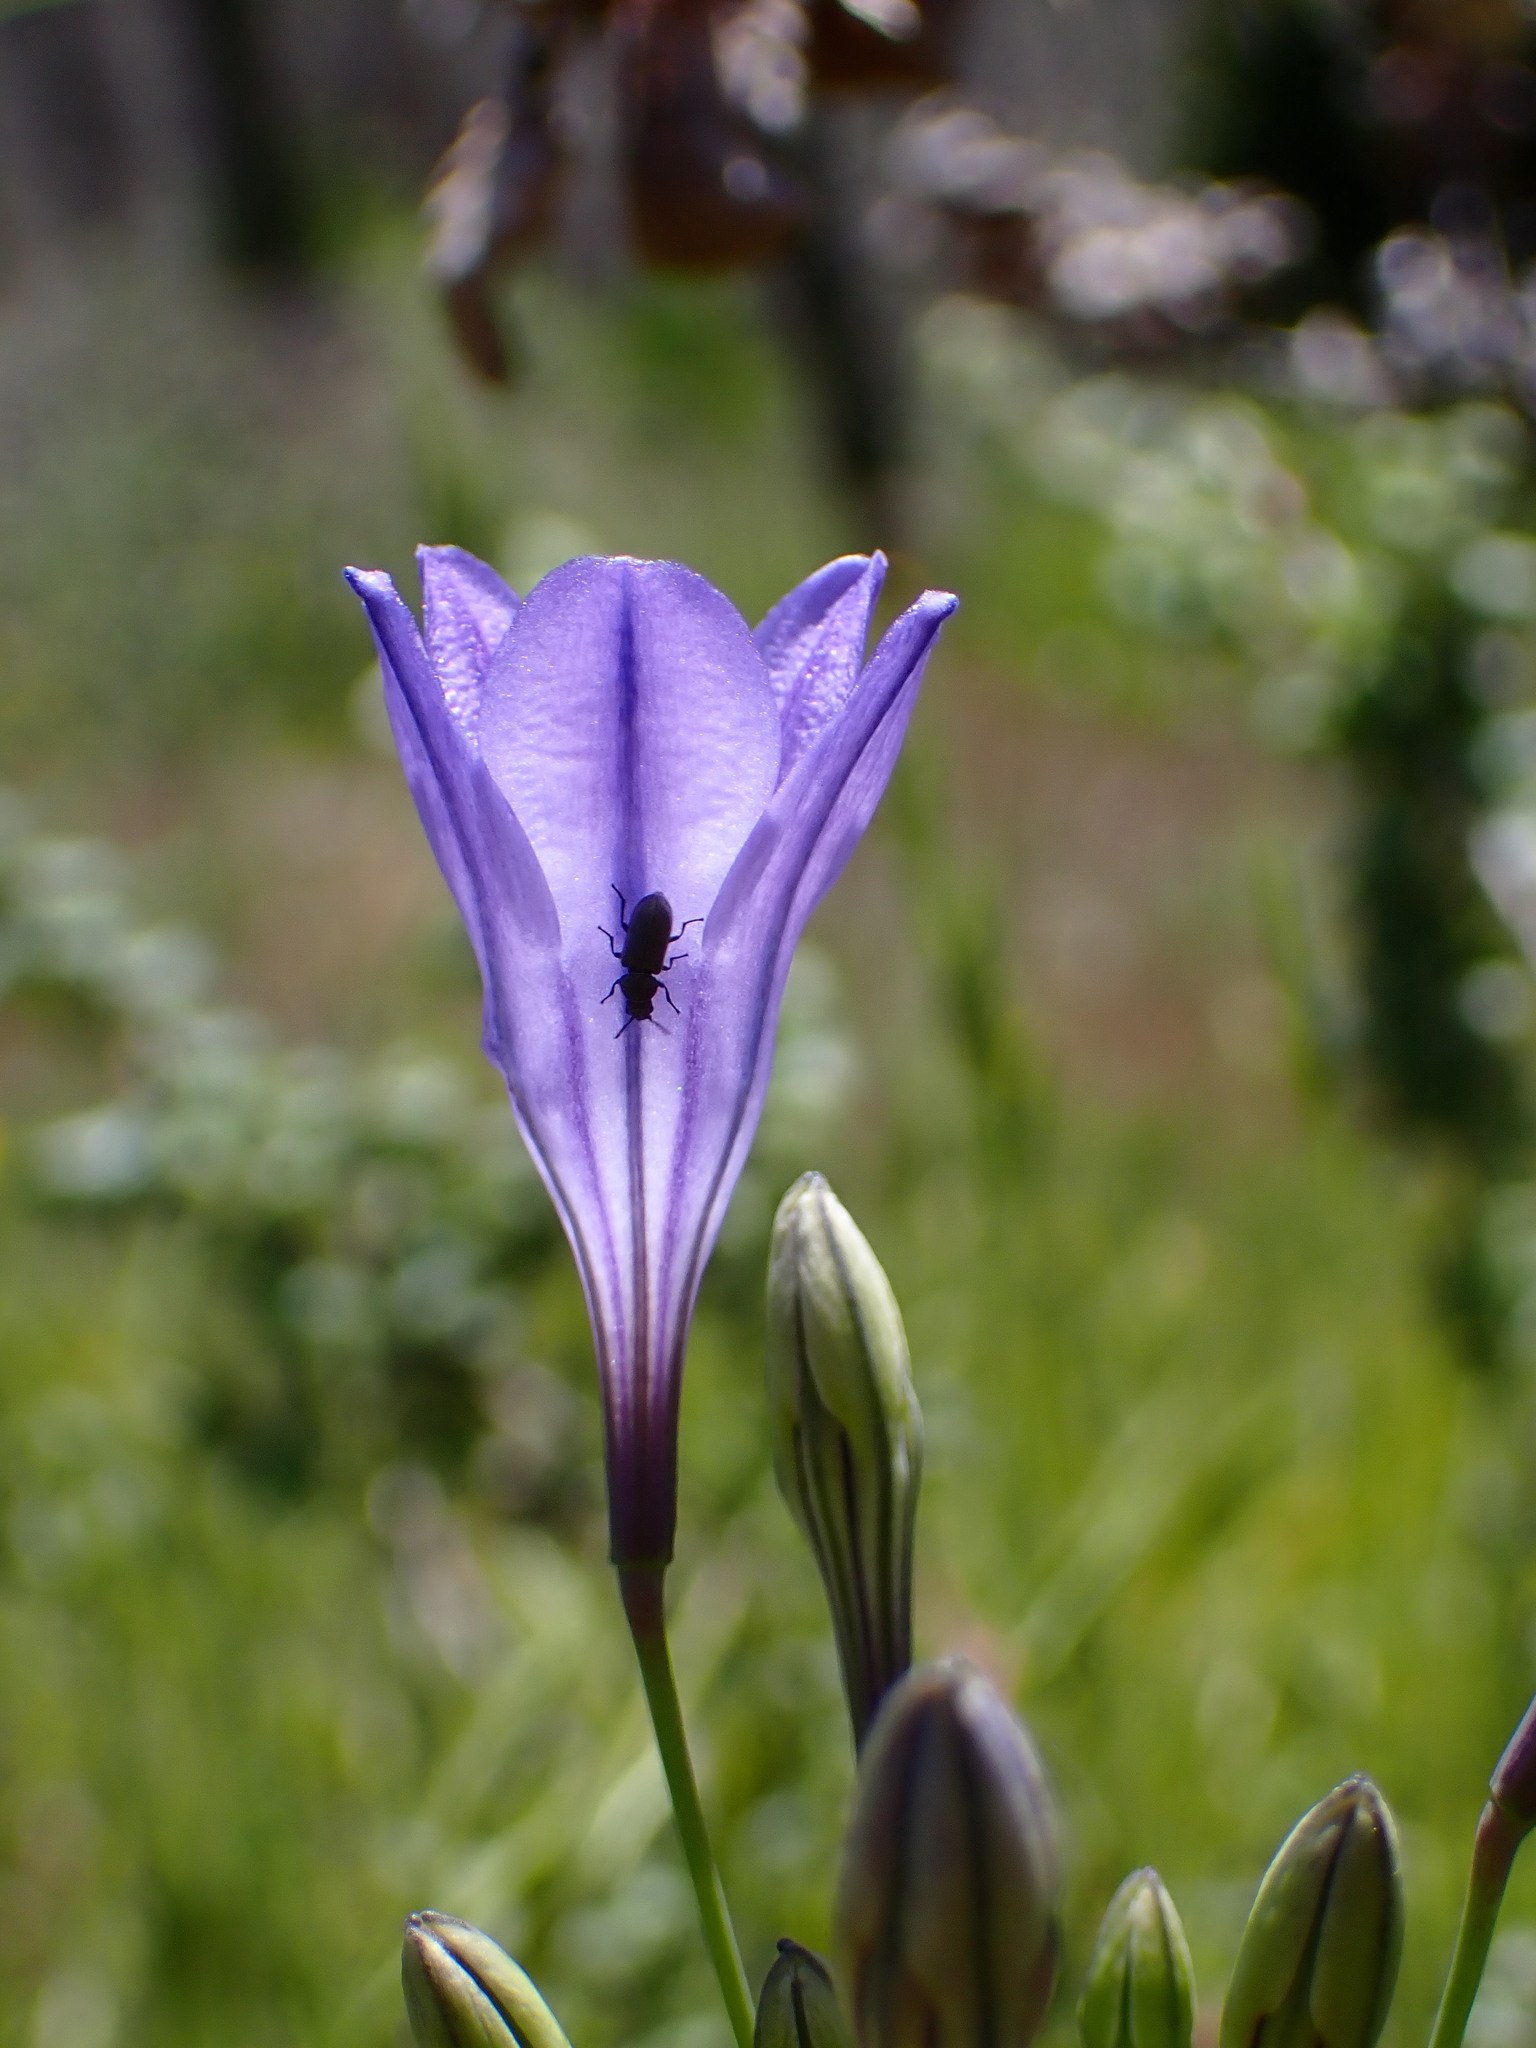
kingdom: Plantae
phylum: Tracheophyta
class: Liliopsida
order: Asparagales
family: Asparagaceae
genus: Triteleia
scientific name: Triteleia laxa
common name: Triplet-lily
